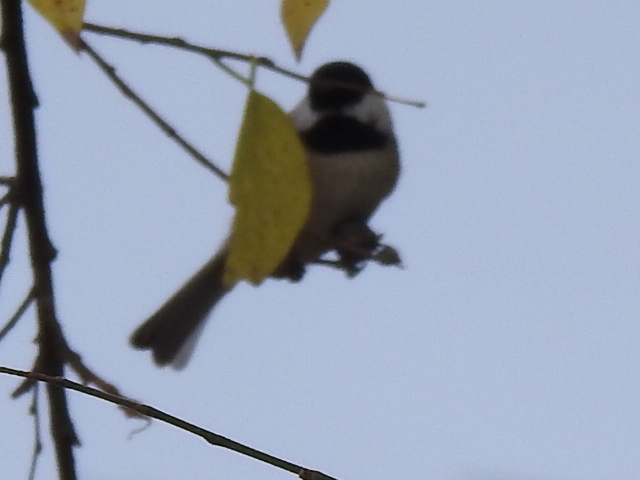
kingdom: Animalia
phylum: Chordata
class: Aves
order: Passeriformes
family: Paridae
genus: Poecile
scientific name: Poecile carolinensis
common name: Carolina chickadee
